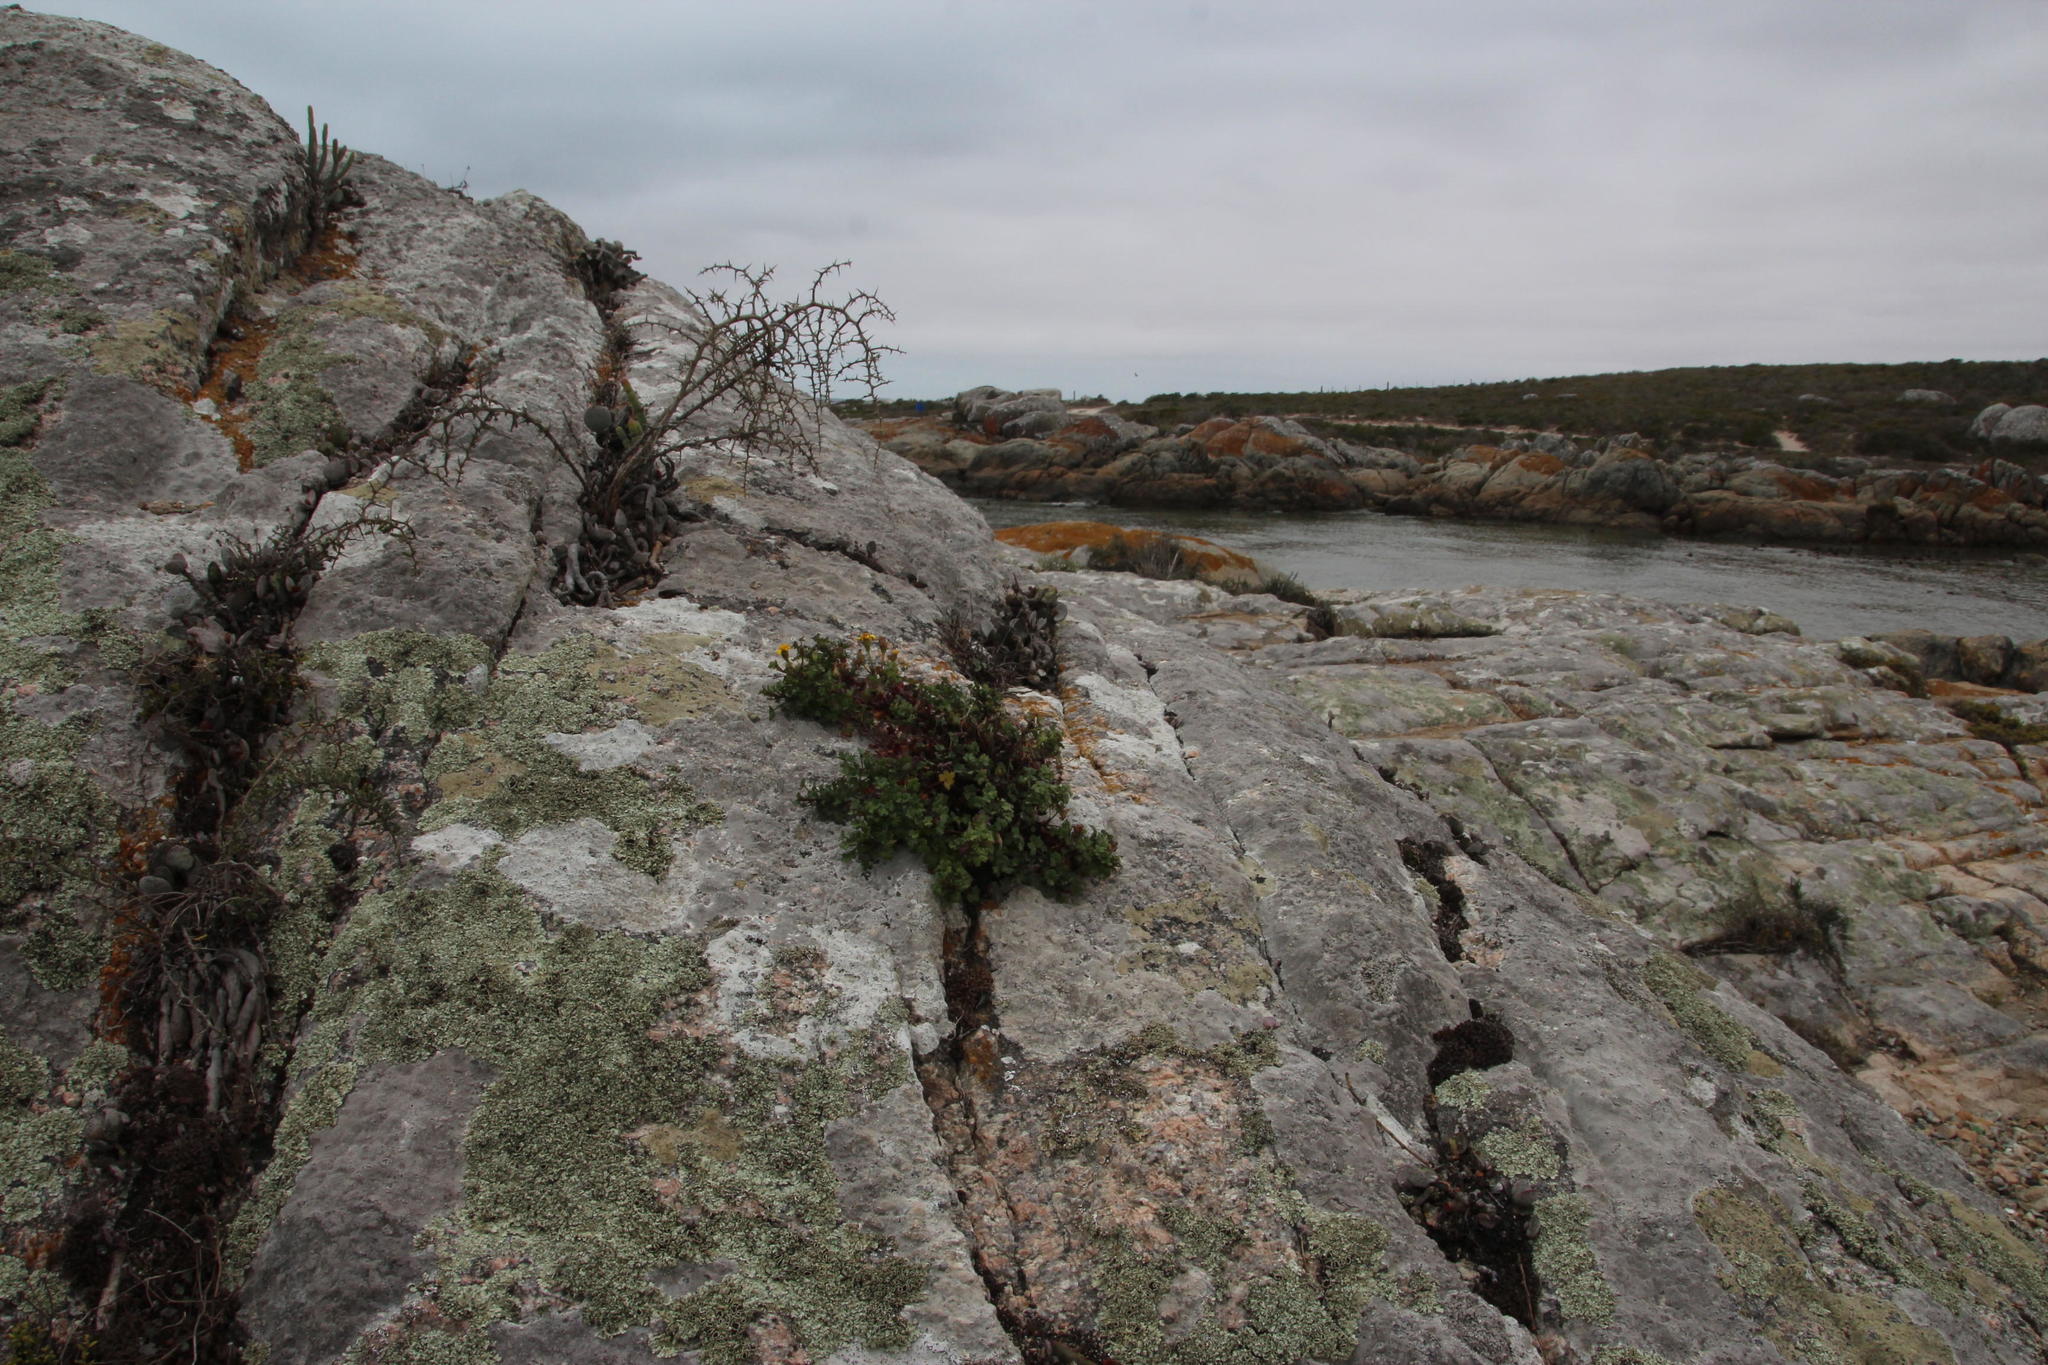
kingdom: Plantae
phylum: Tracheophyta
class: Magnoliopsida
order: Asterales
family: Asteraceae
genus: Cineraria
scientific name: Cineraria angulosa
